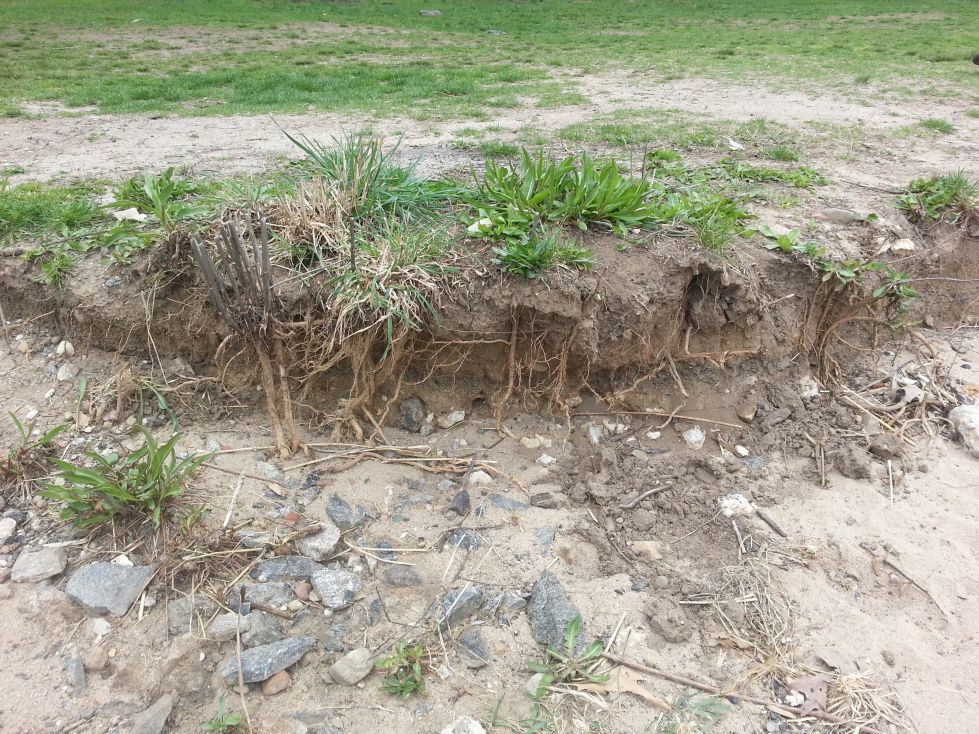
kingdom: Plantae
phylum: Tracheophyta
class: Magnoliopsida
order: Asterales
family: Asteraceae
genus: Solidago
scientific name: Solidago sempervirens
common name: Salt-marsh goldenrod
